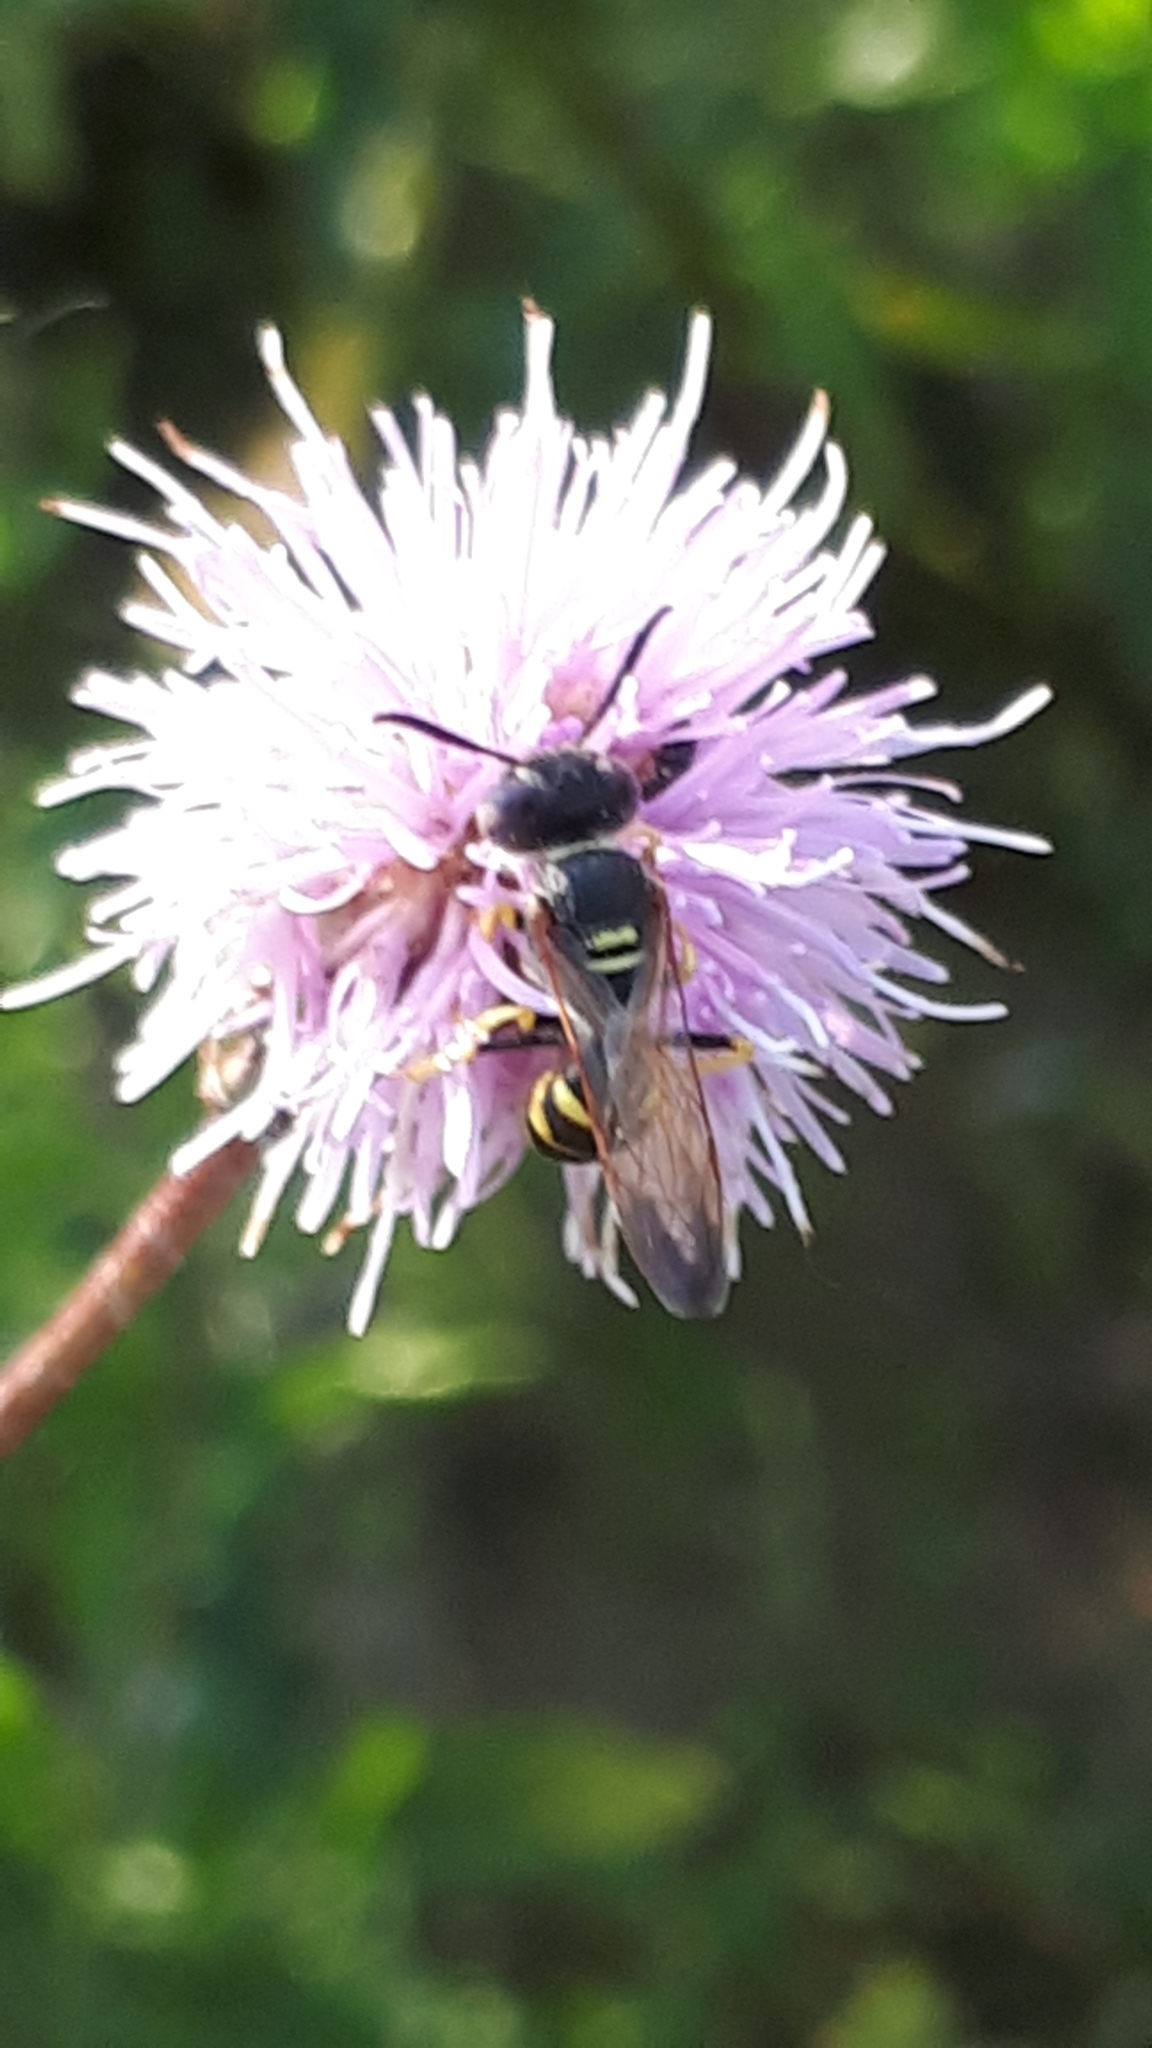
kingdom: Animalia
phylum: Arthropoda
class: Insecta
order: Hymenoptera
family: Crabronidae
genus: Philanthus
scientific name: Philanthus triangulum
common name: Bee wolf
